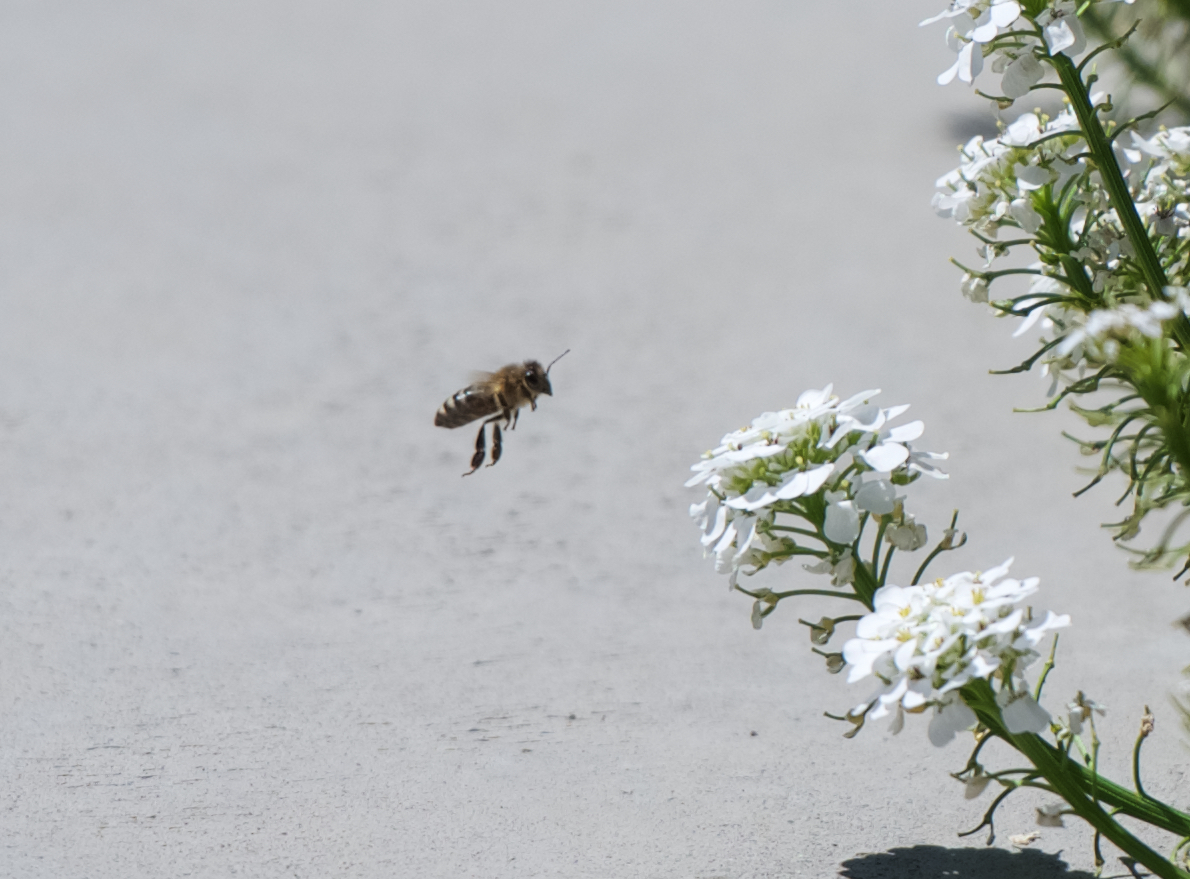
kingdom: Animalia
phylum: Arthropoda
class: Insecta
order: Hymenoptera
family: Apidae
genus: Apis
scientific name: Apis mellifera
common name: Honey bee
